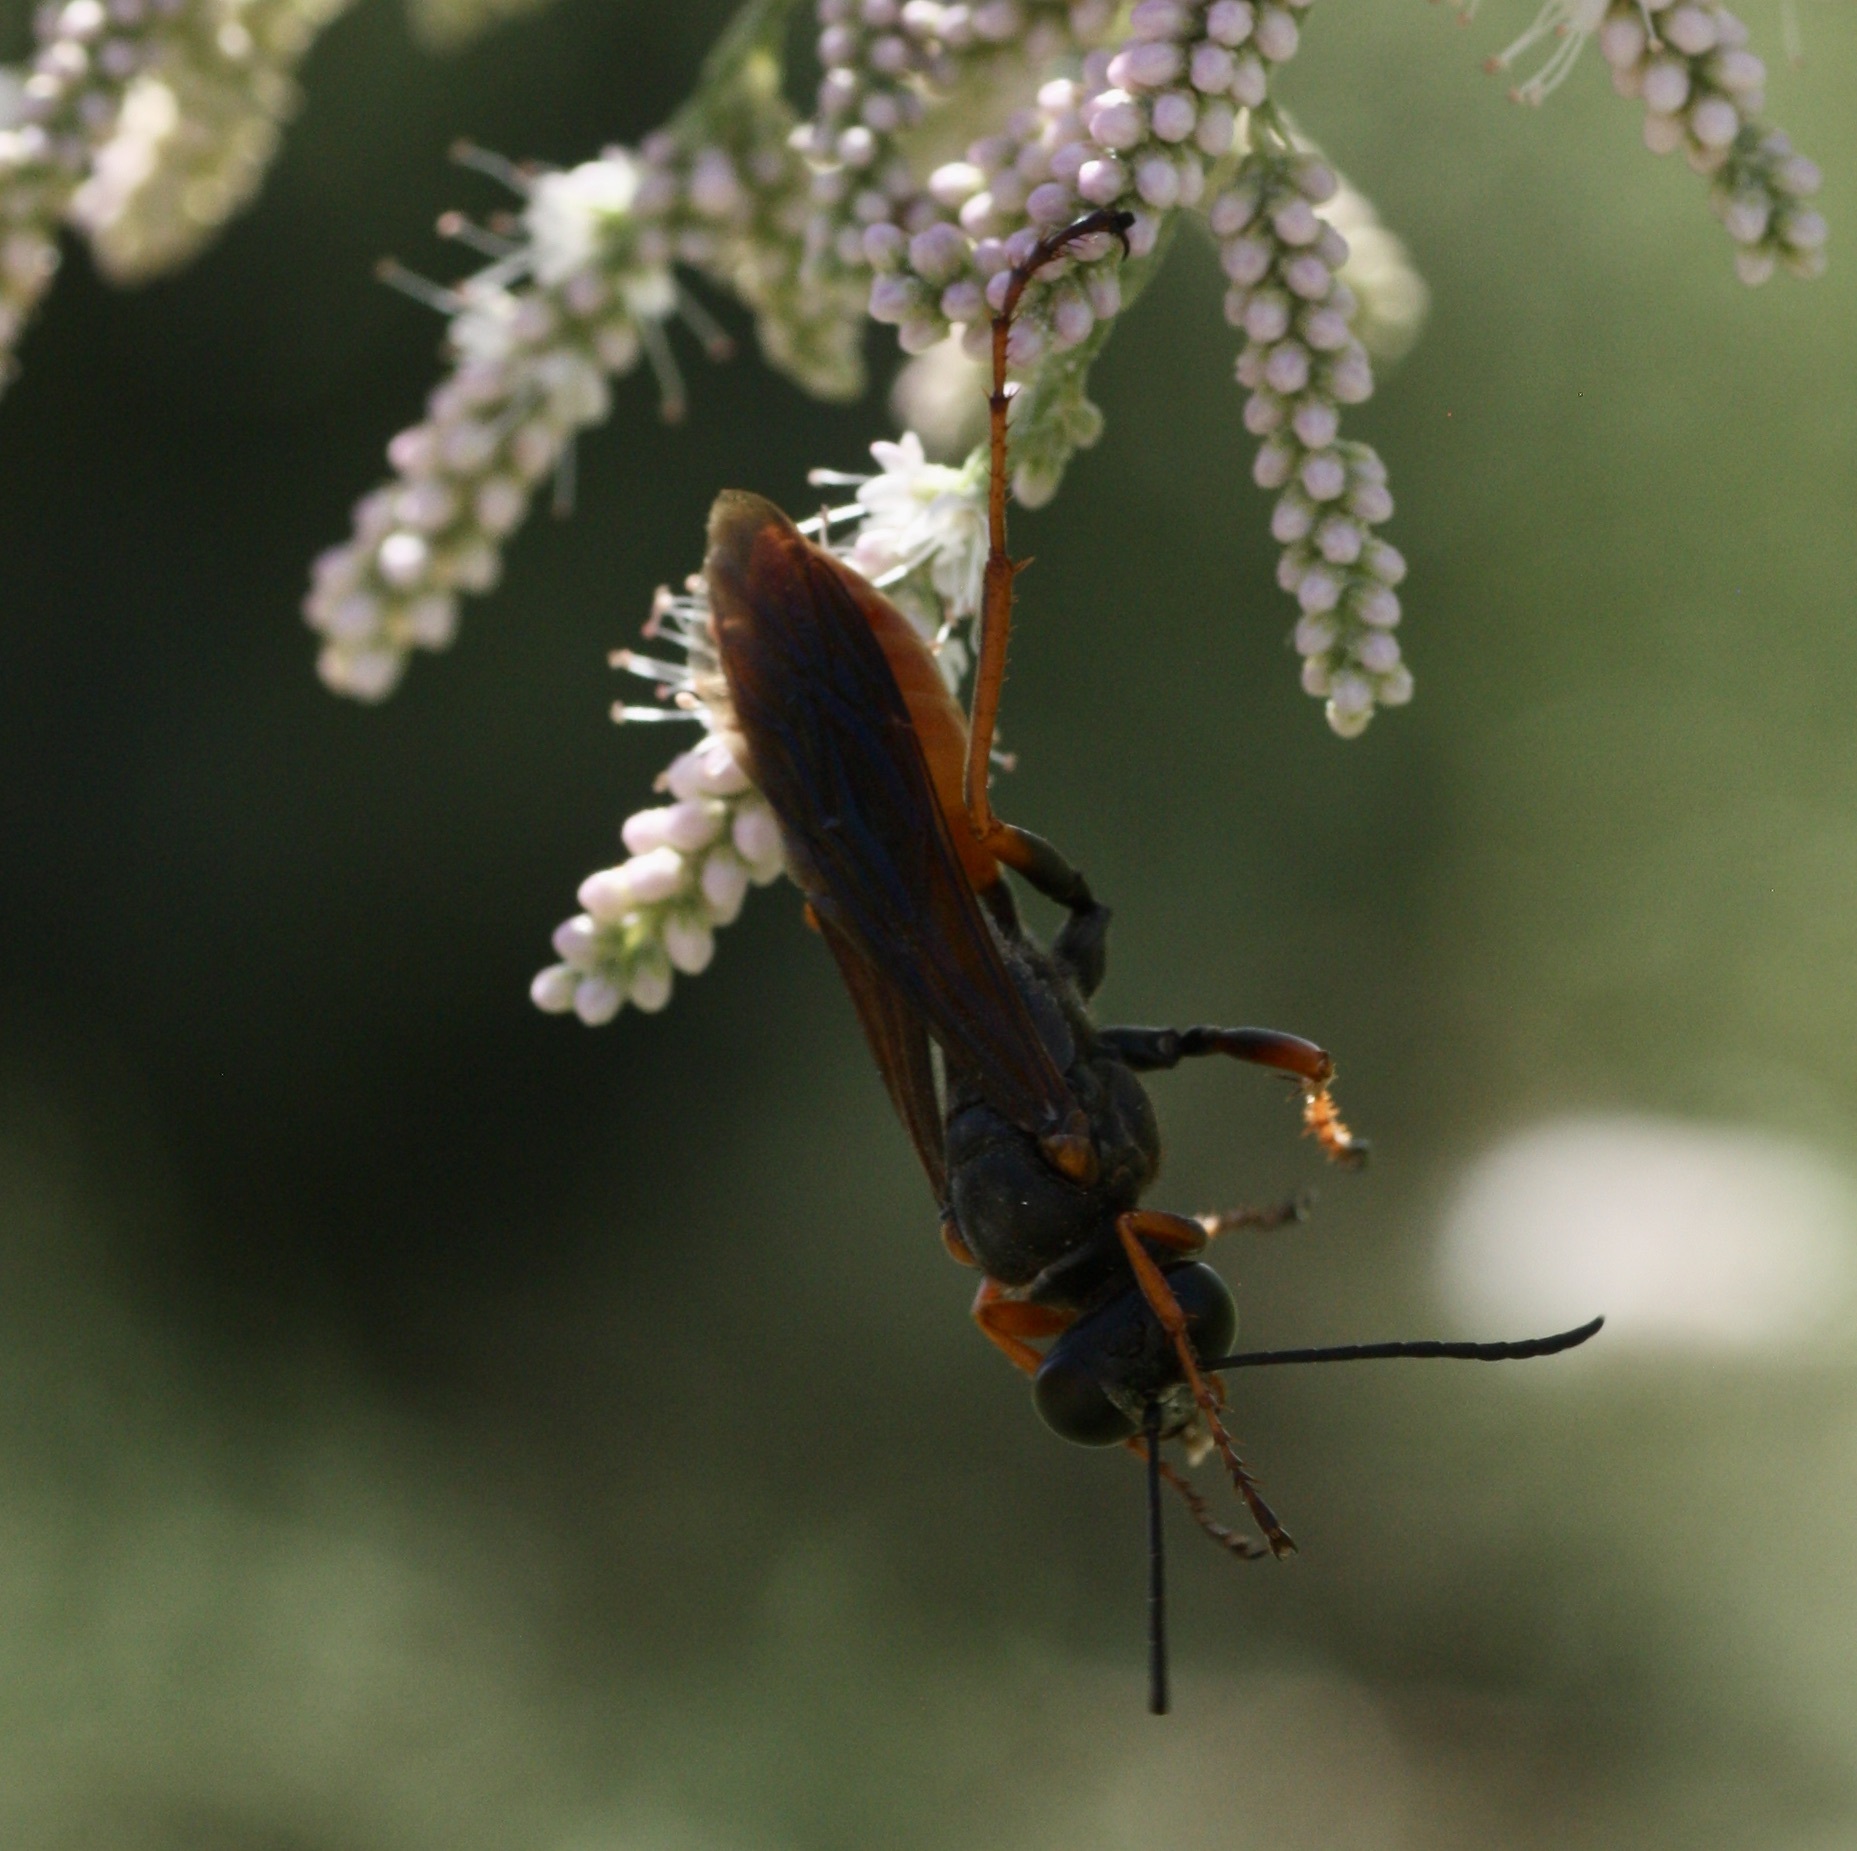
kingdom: Animalia
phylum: Arthropoda
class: Insecta
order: Hymenoptera
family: Sphecidae
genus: Sphex
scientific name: Sphex ashmeadi
